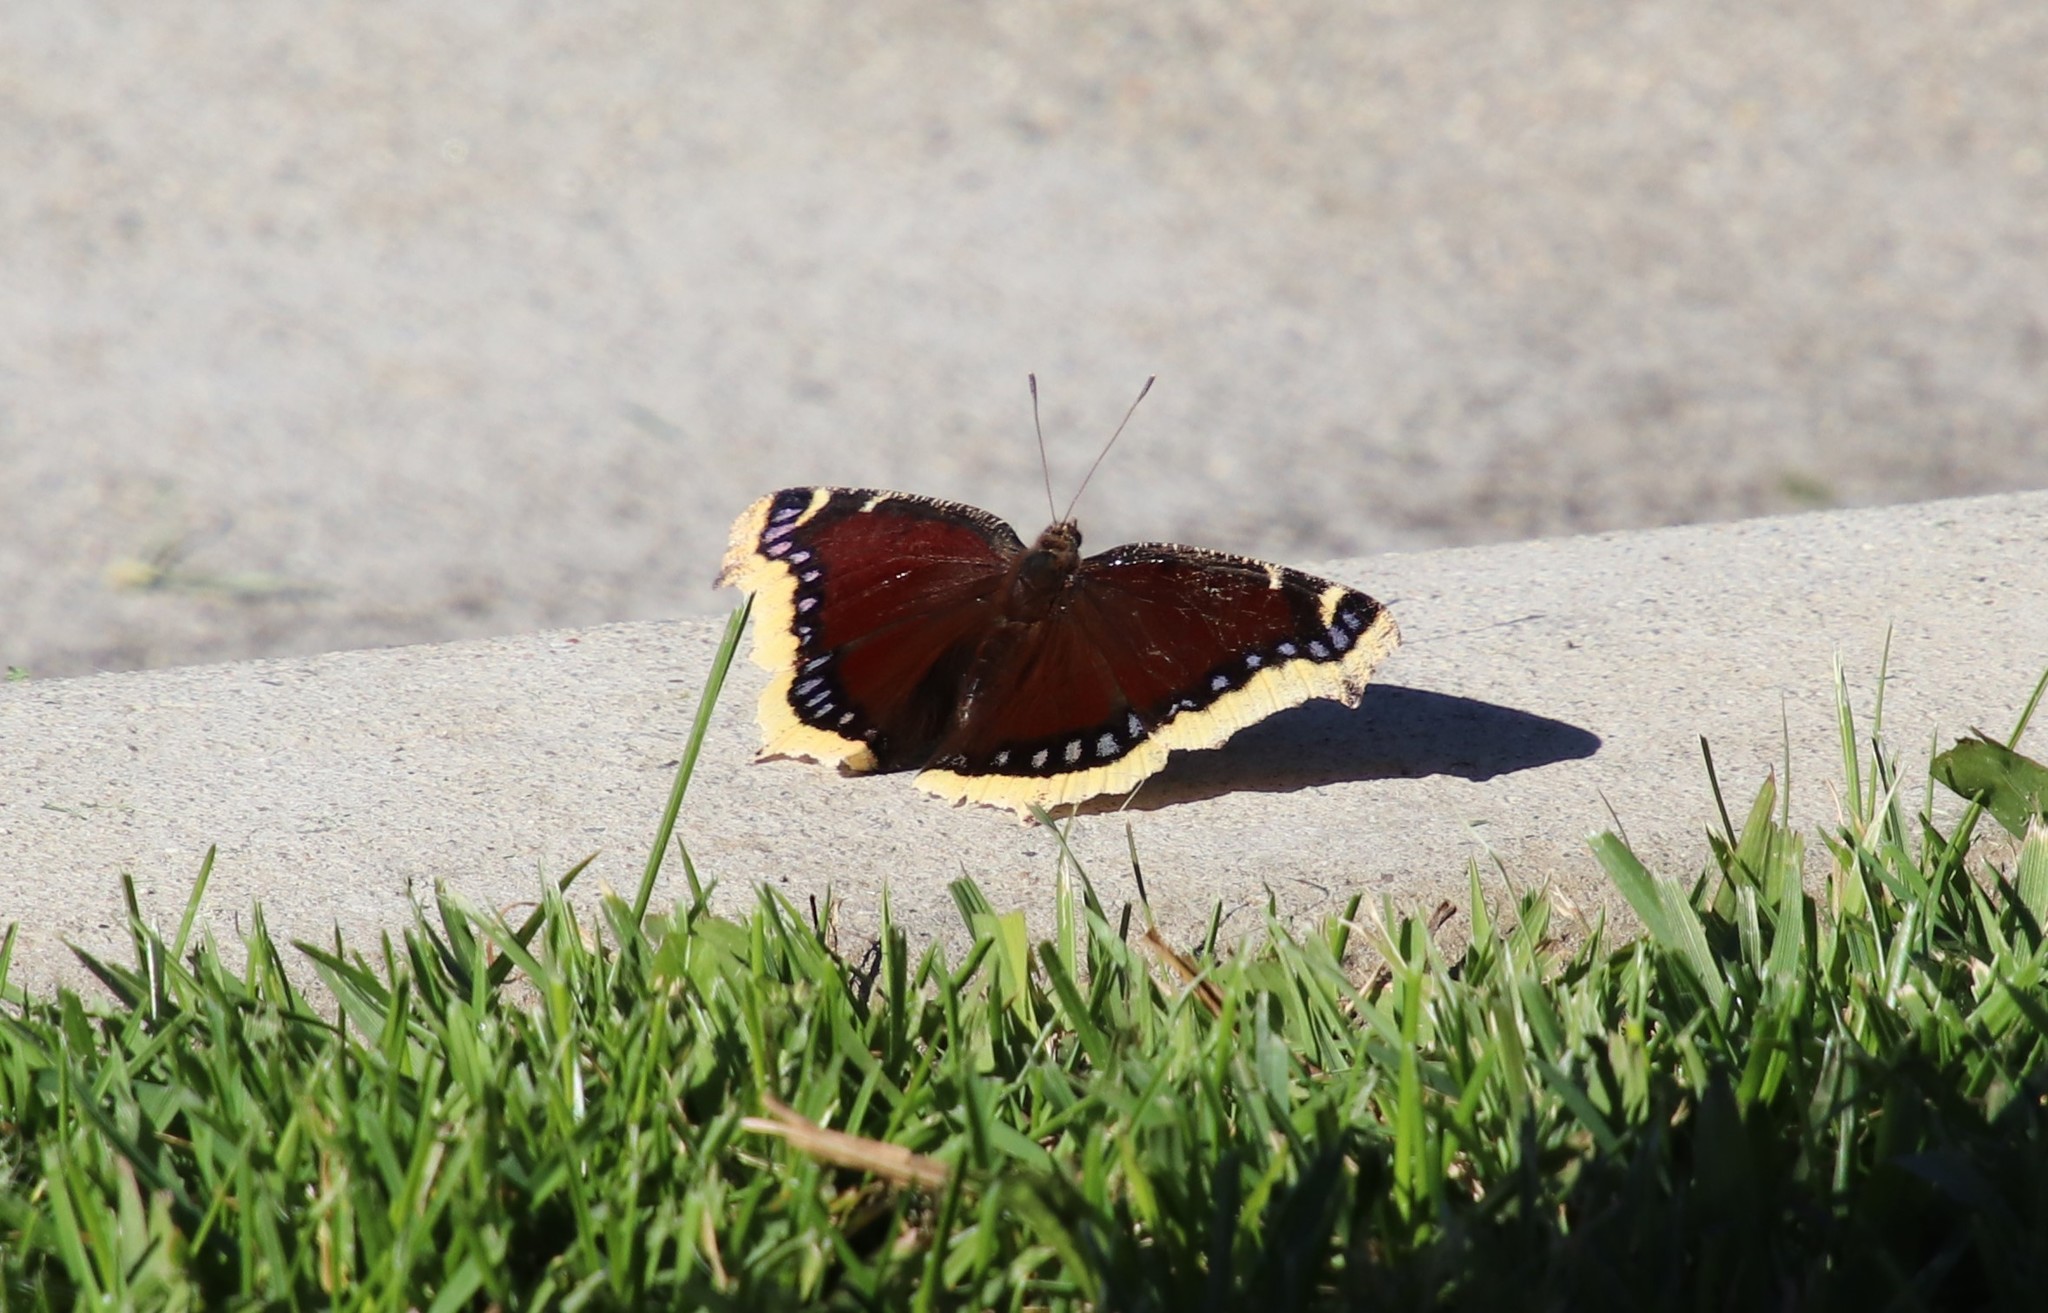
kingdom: Animalia
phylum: Arthropoda
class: Insecta
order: Lepidoptera
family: Nymphalidae
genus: Nymphalis
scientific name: Nymphalis antiopa
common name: Camberwell beauty
